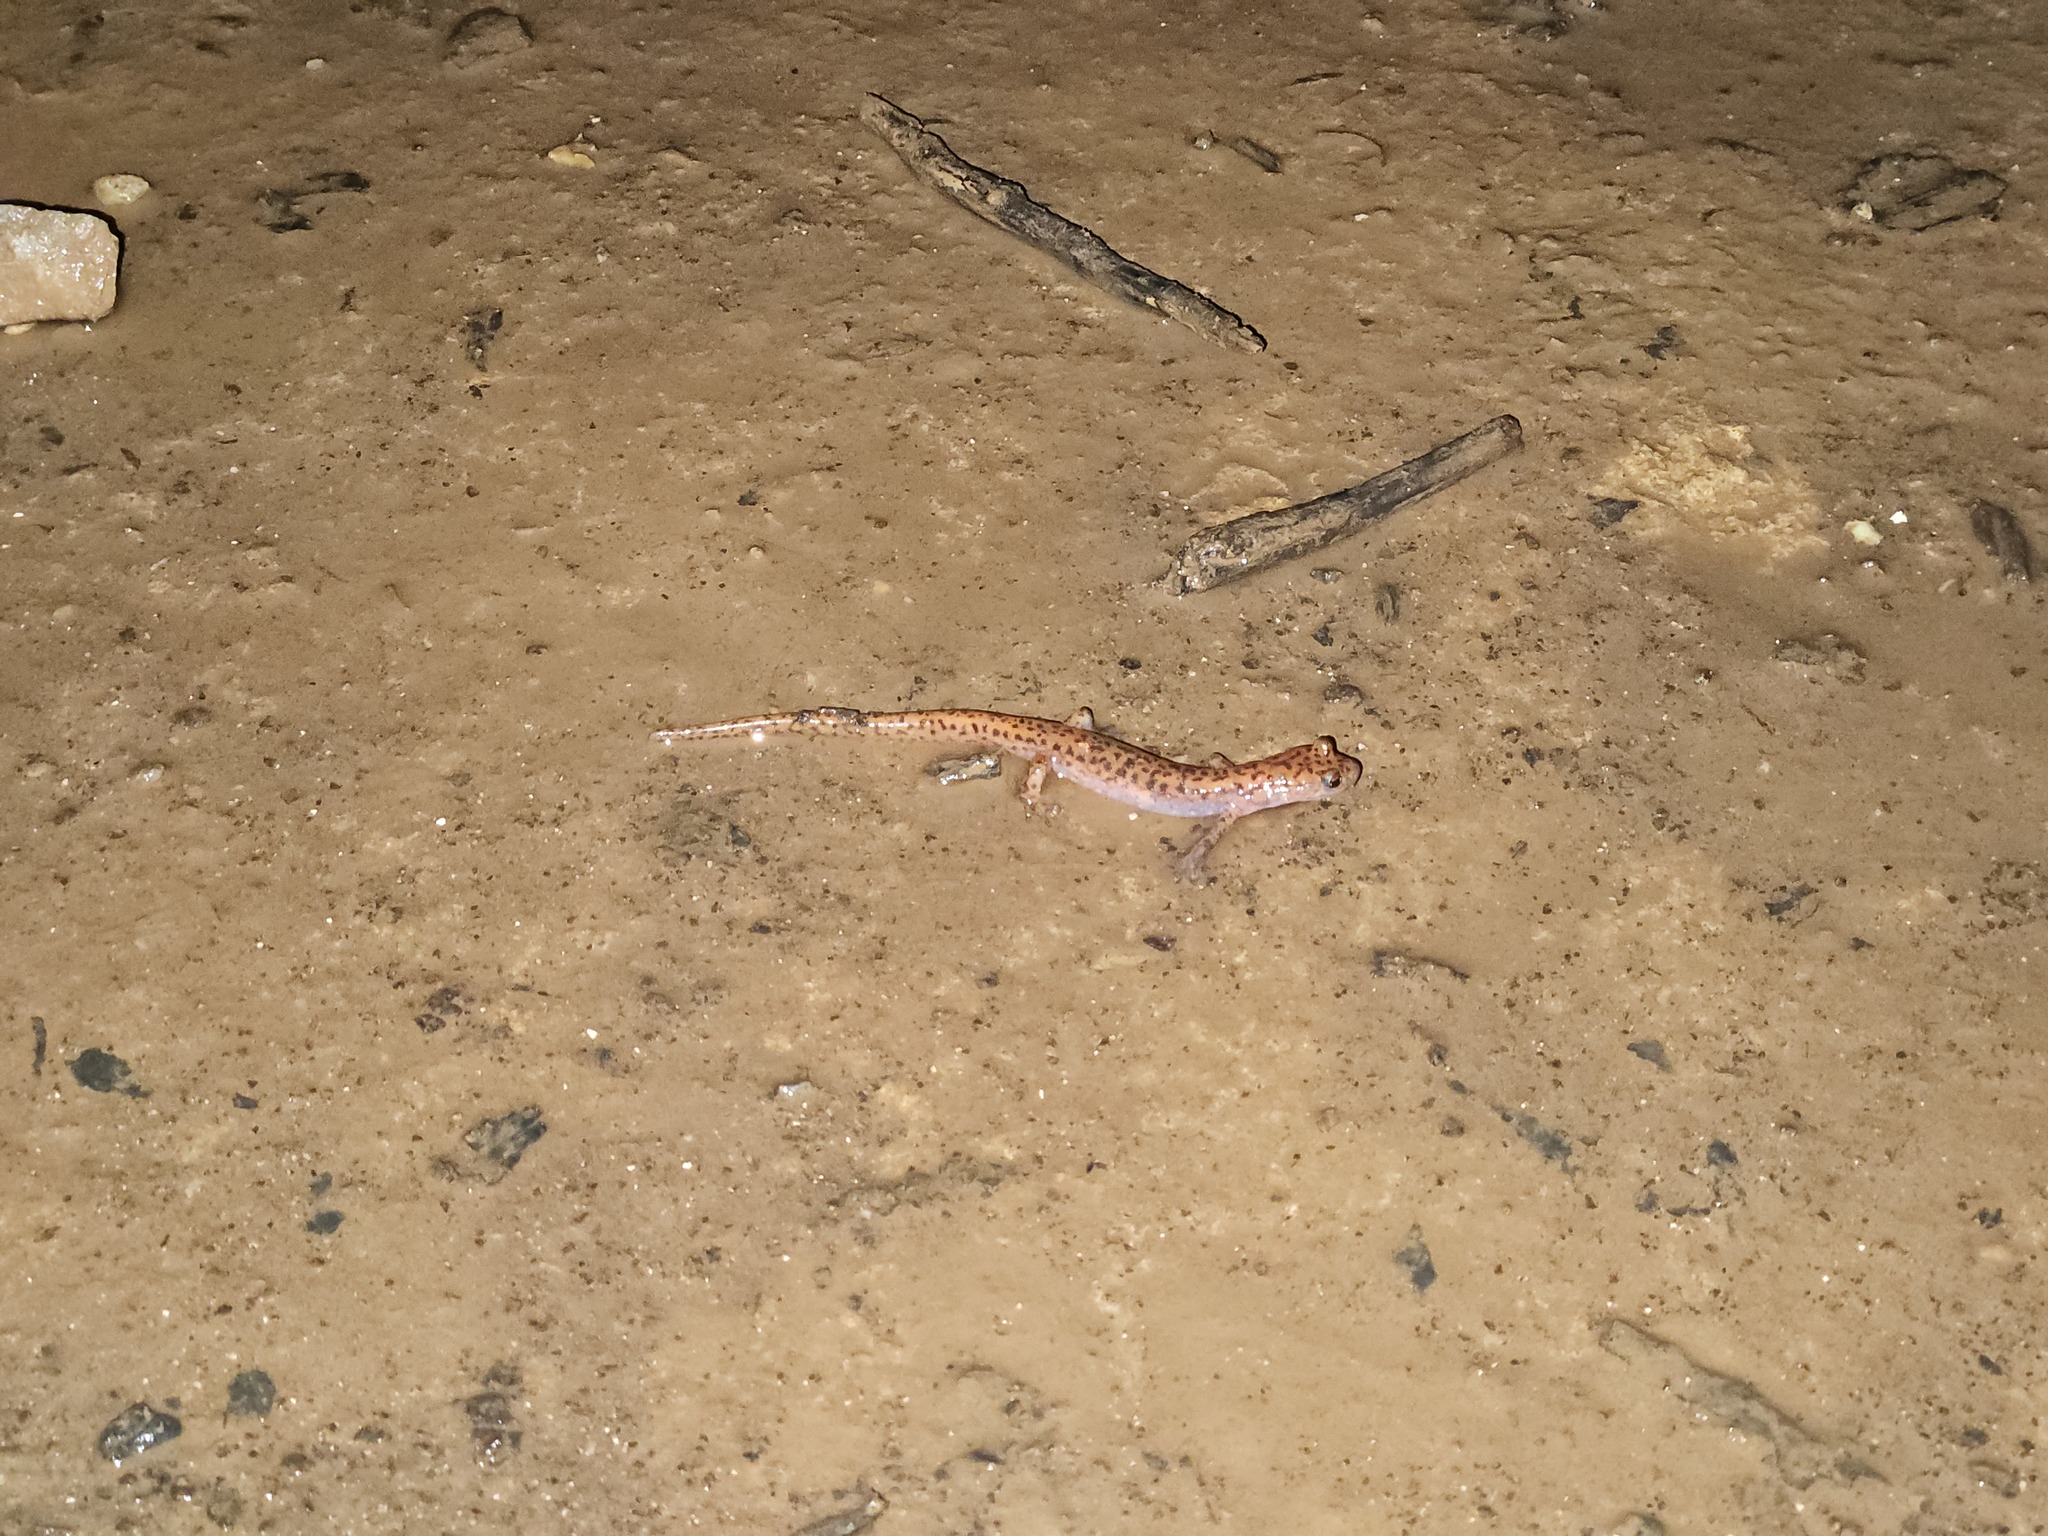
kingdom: Animalia
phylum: Chordata
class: Amphibia
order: Caudata
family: Plethodontidae
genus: Eurycea
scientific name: Eurycea lucifuga
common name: Cave salamander
